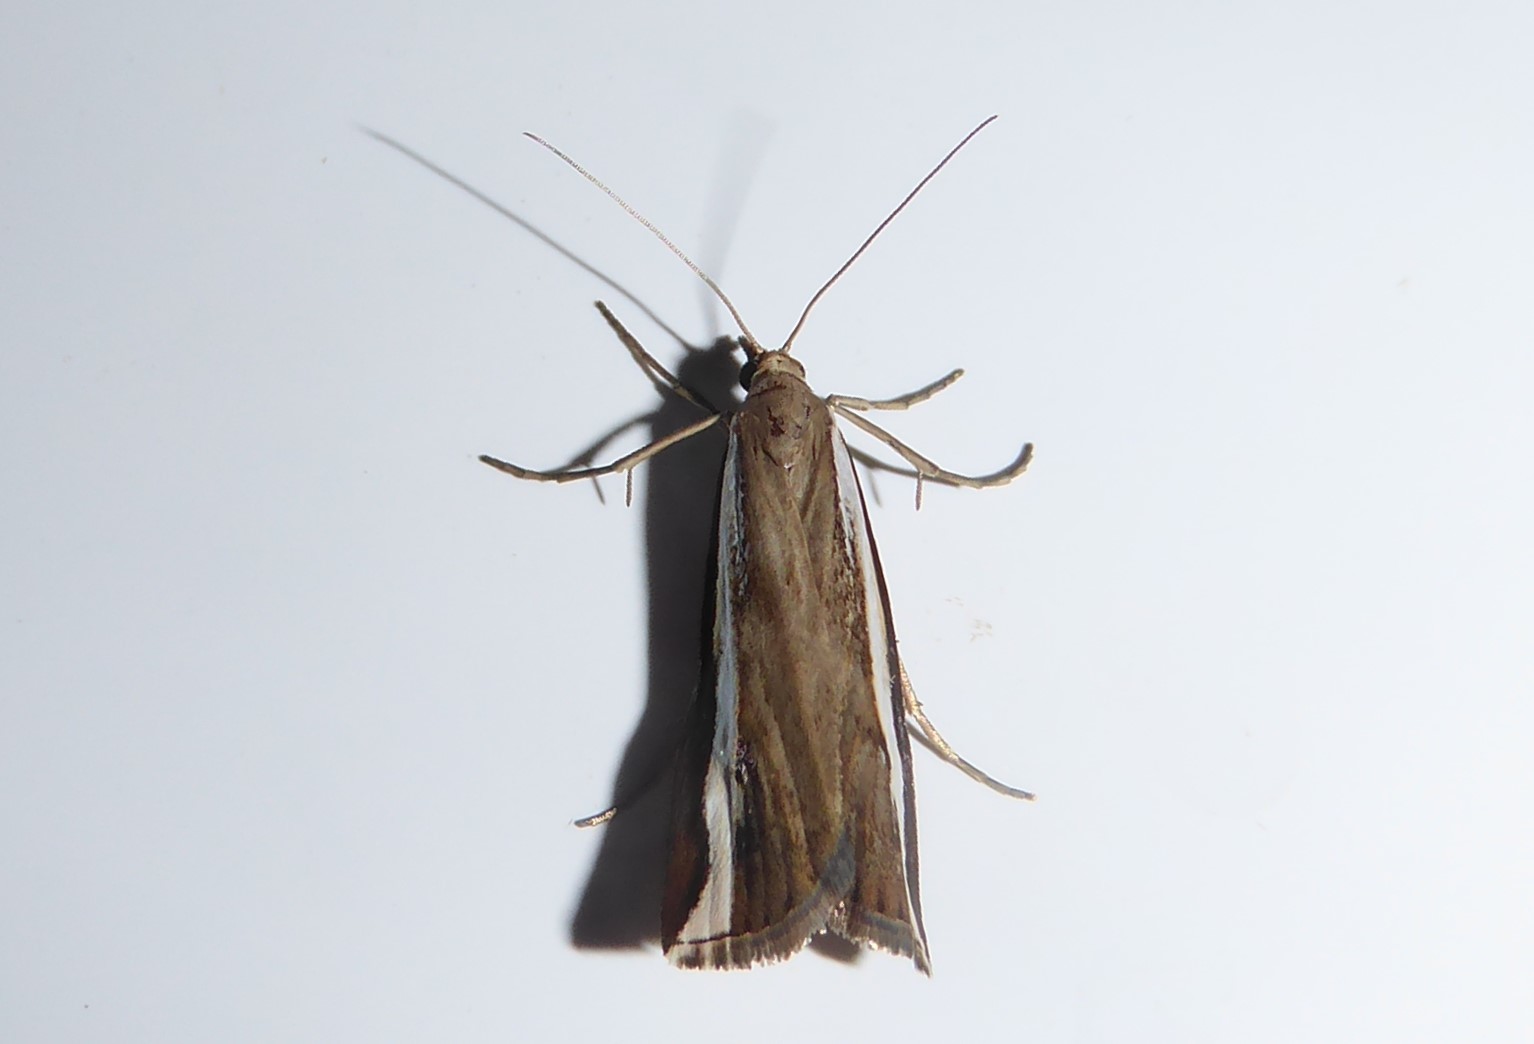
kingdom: Animalia
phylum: Arthropoda
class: Insecta
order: Lepidoptera
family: Crambidae
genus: Orocrambus
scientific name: Orocrambus flexuosellus
